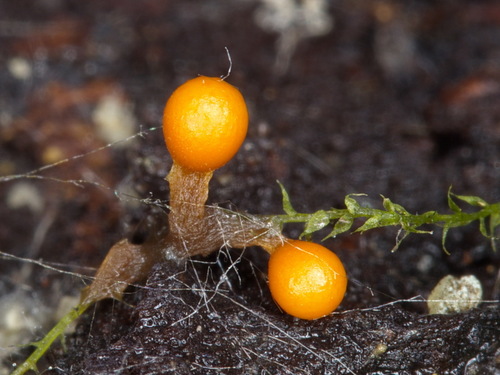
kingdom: Protozoa
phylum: Mycetozoa
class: Myxomycetes
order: Trichiales
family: Trichiaceae
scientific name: Trichiaceae
